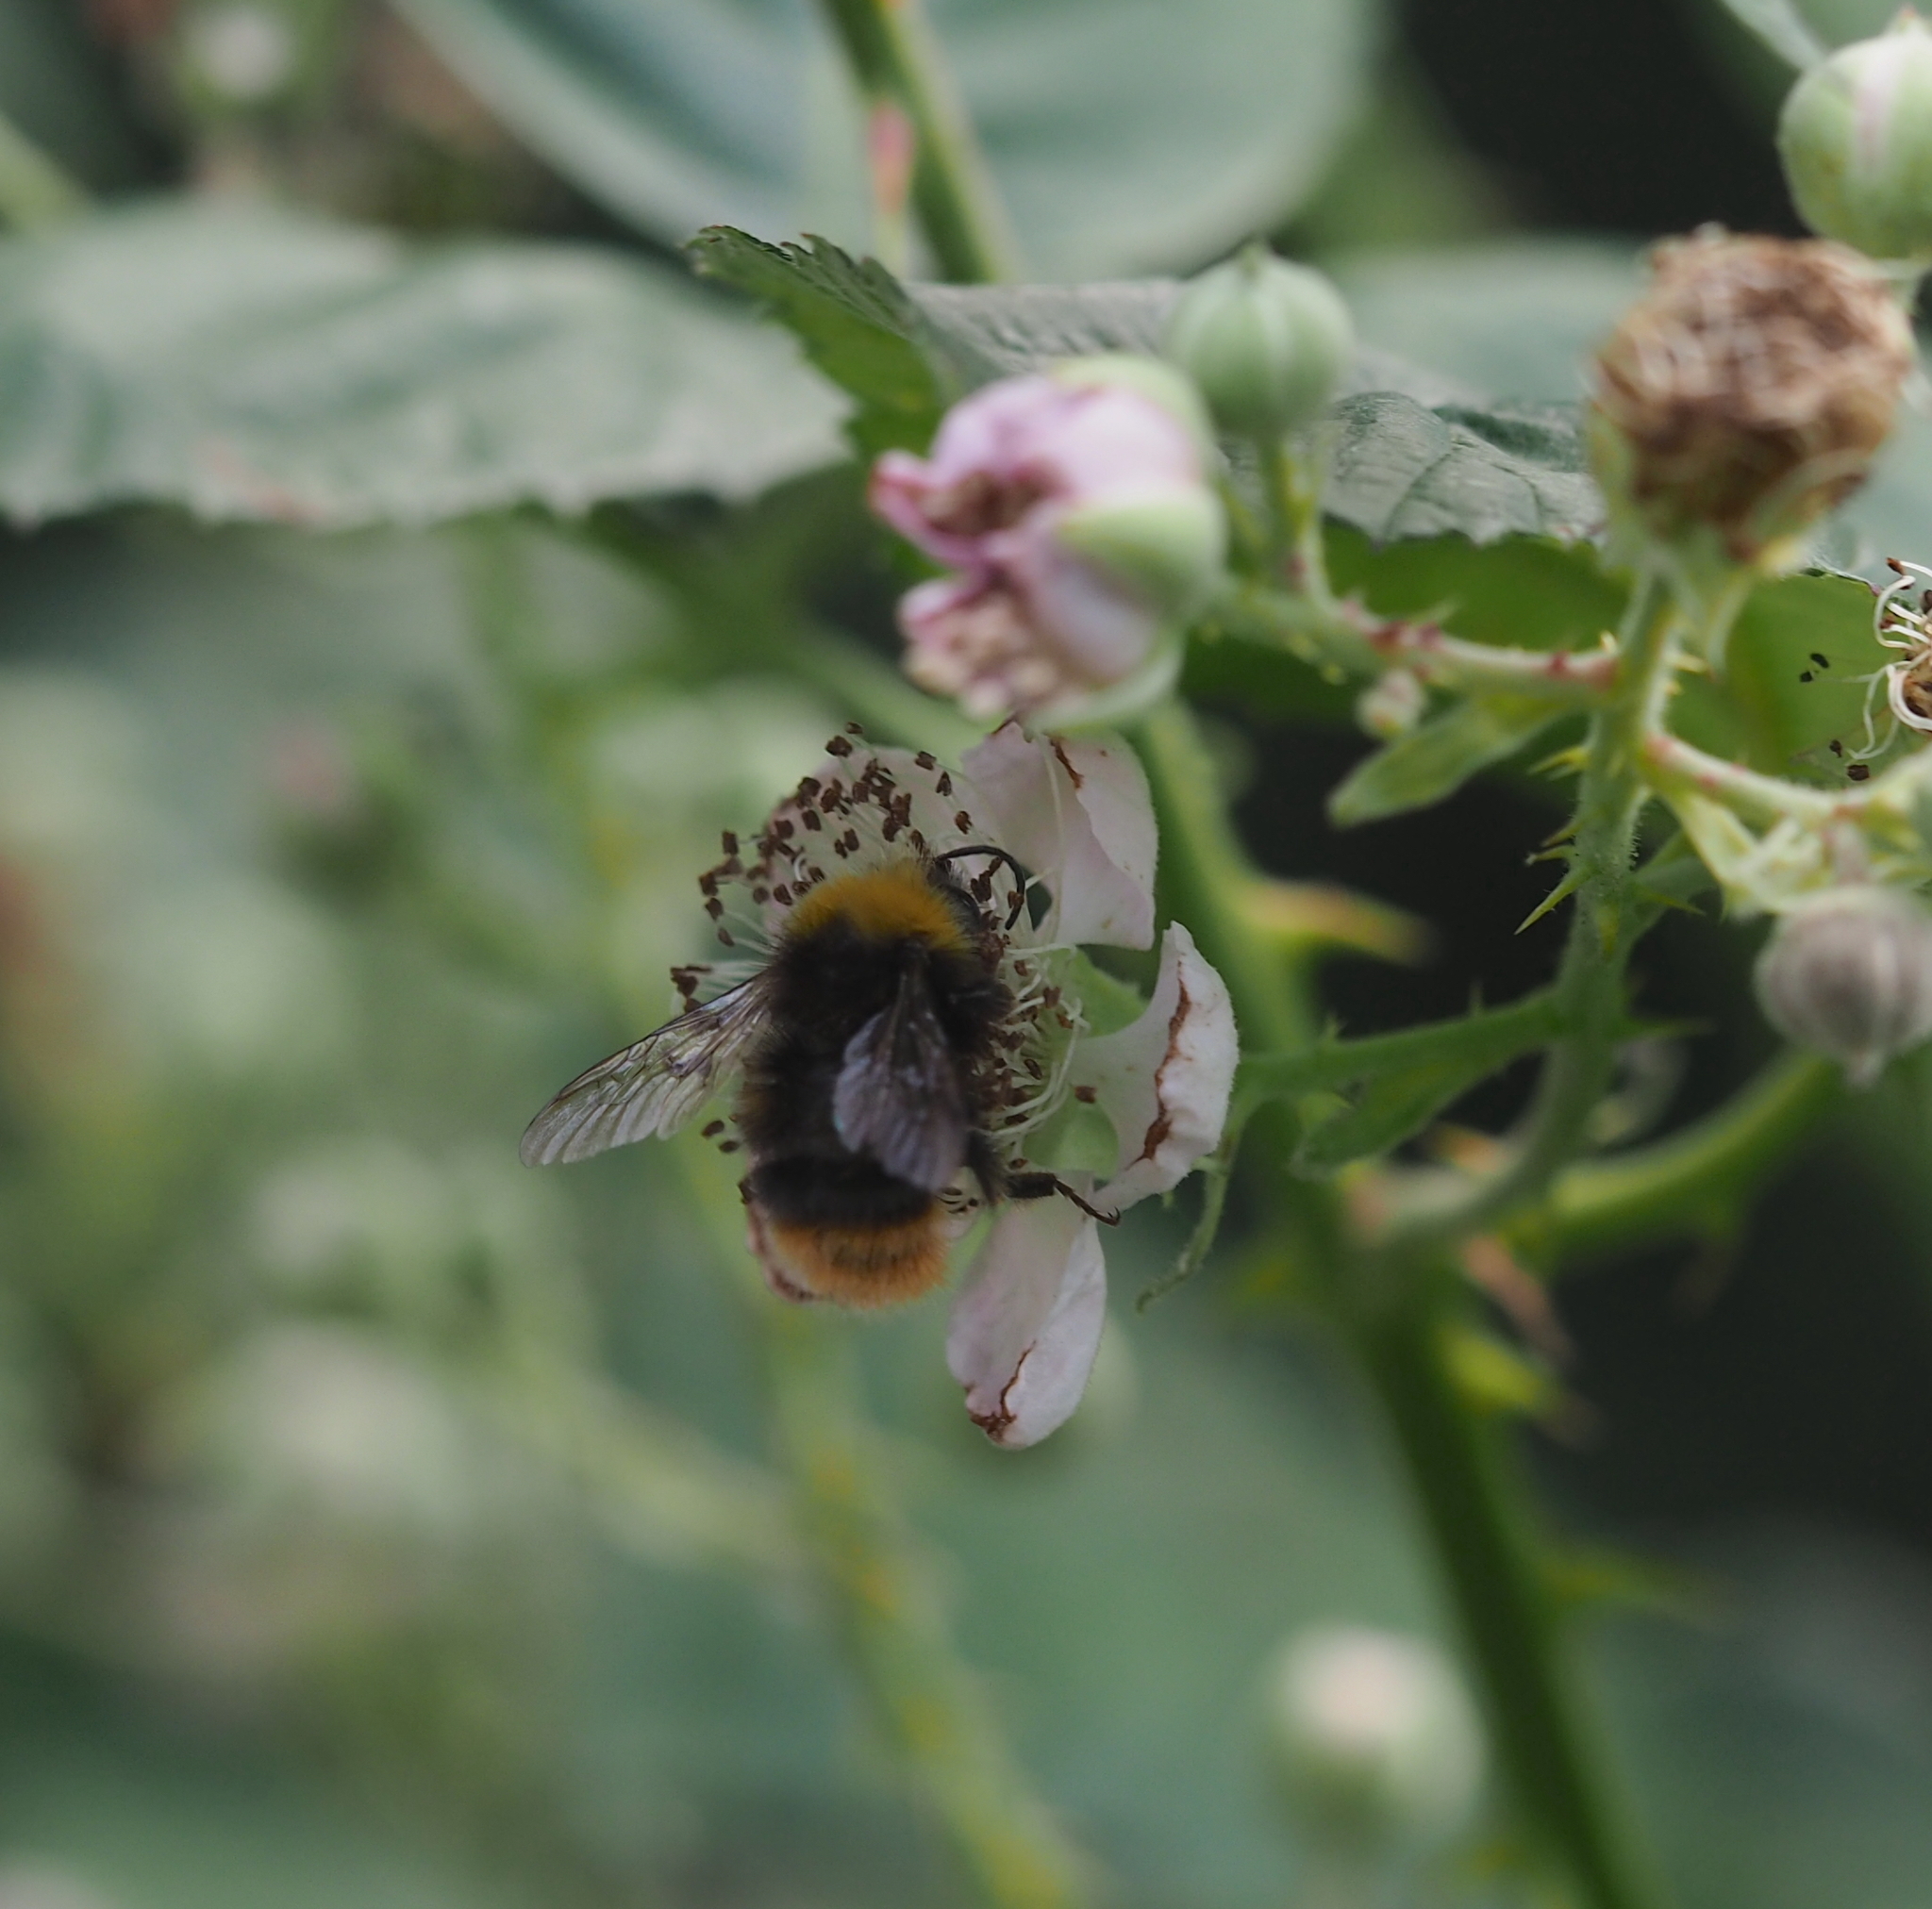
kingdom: Animalia
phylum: Arthropoda
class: Insecta
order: Hymenoptera
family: Apidae
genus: Bombus
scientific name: Bombus pratorum
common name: Early humble-bee
